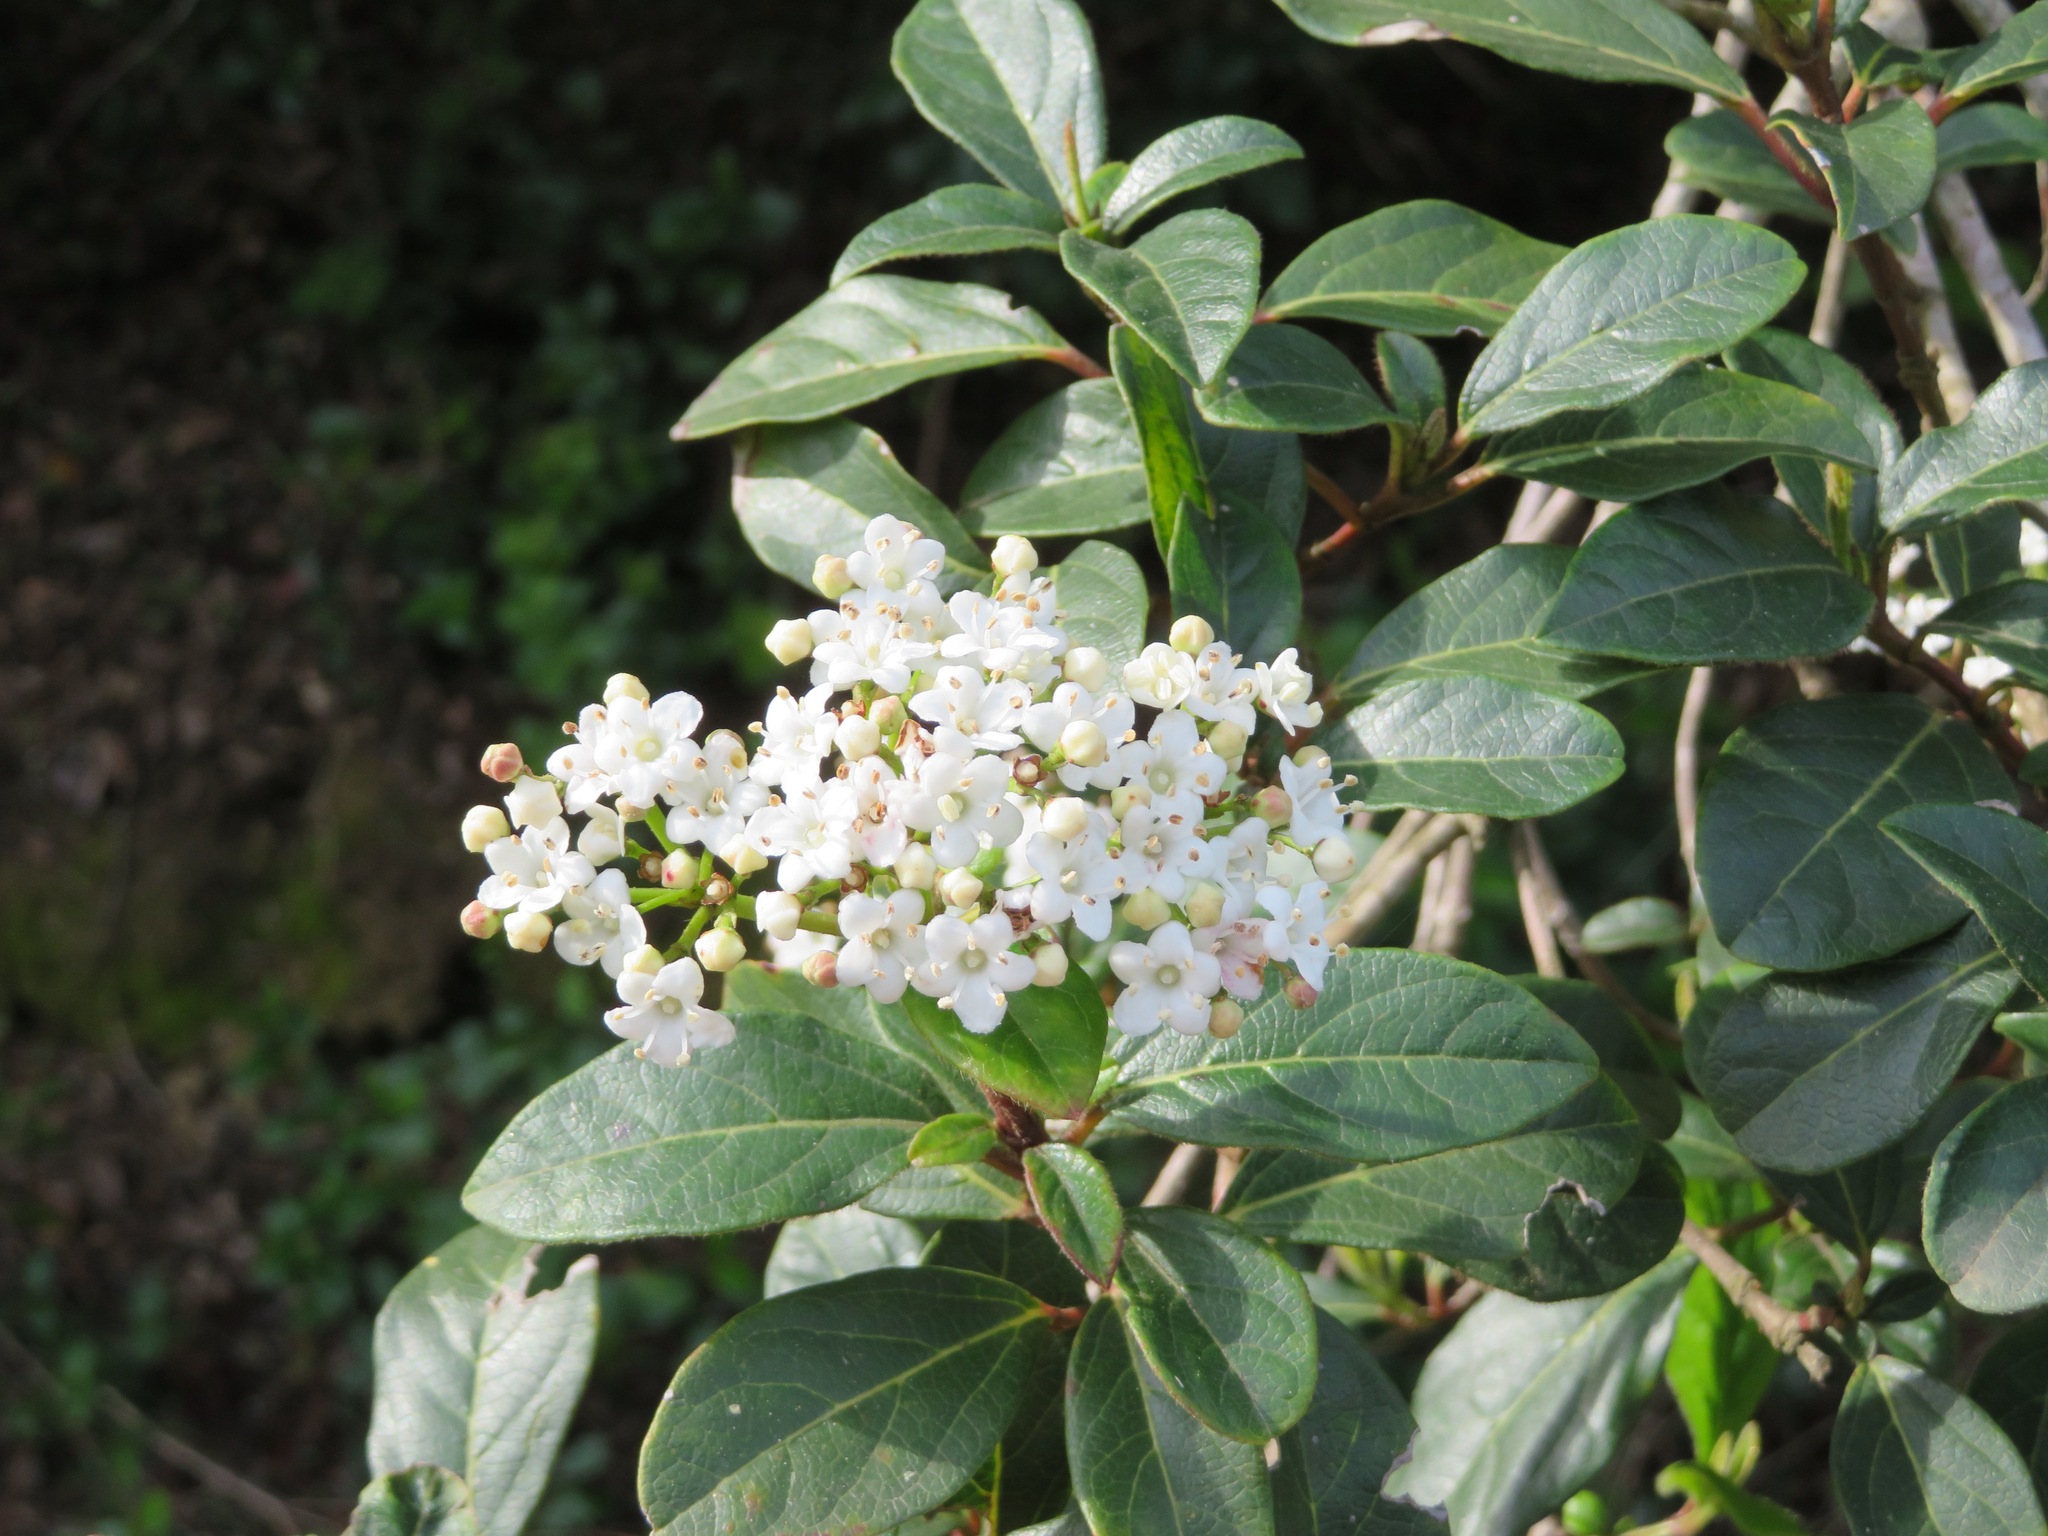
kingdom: Plantae
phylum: Tracheophyta
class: Magnoliopsida
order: Dipsacales
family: Viburnaceae
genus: Viburnum
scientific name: Viburnum tinus
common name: Laurustinus
